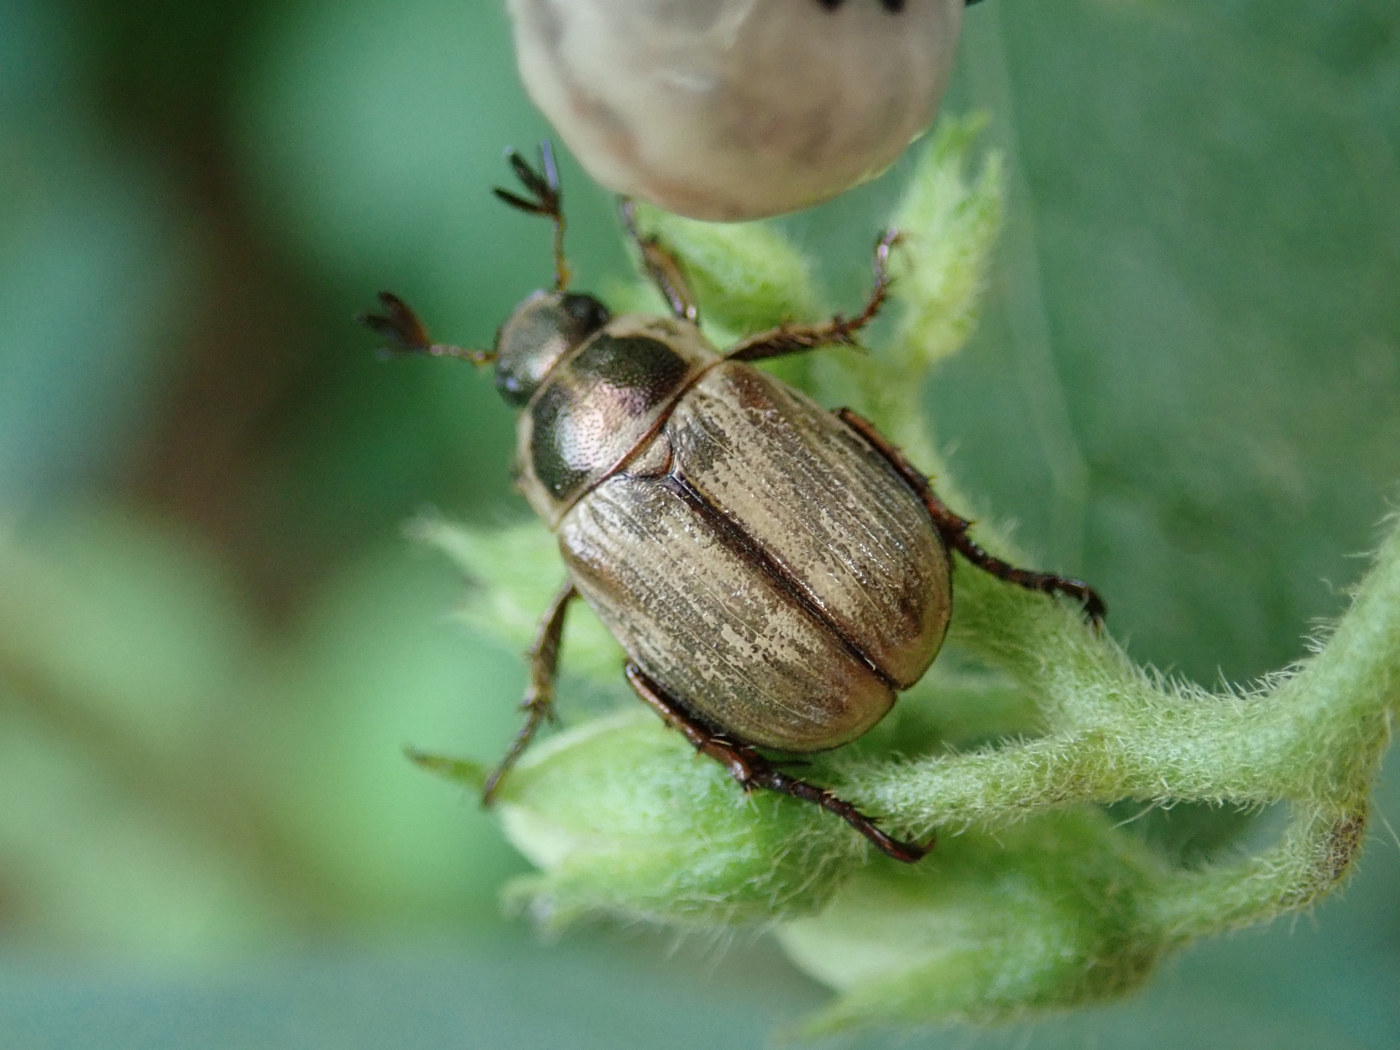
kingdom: Animalia
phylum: Arthropoda
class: Insecta
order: Coleoptera
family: Scarabaeidae
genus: Exomala
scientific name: Exomala orientalis
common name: Oriental beetle
